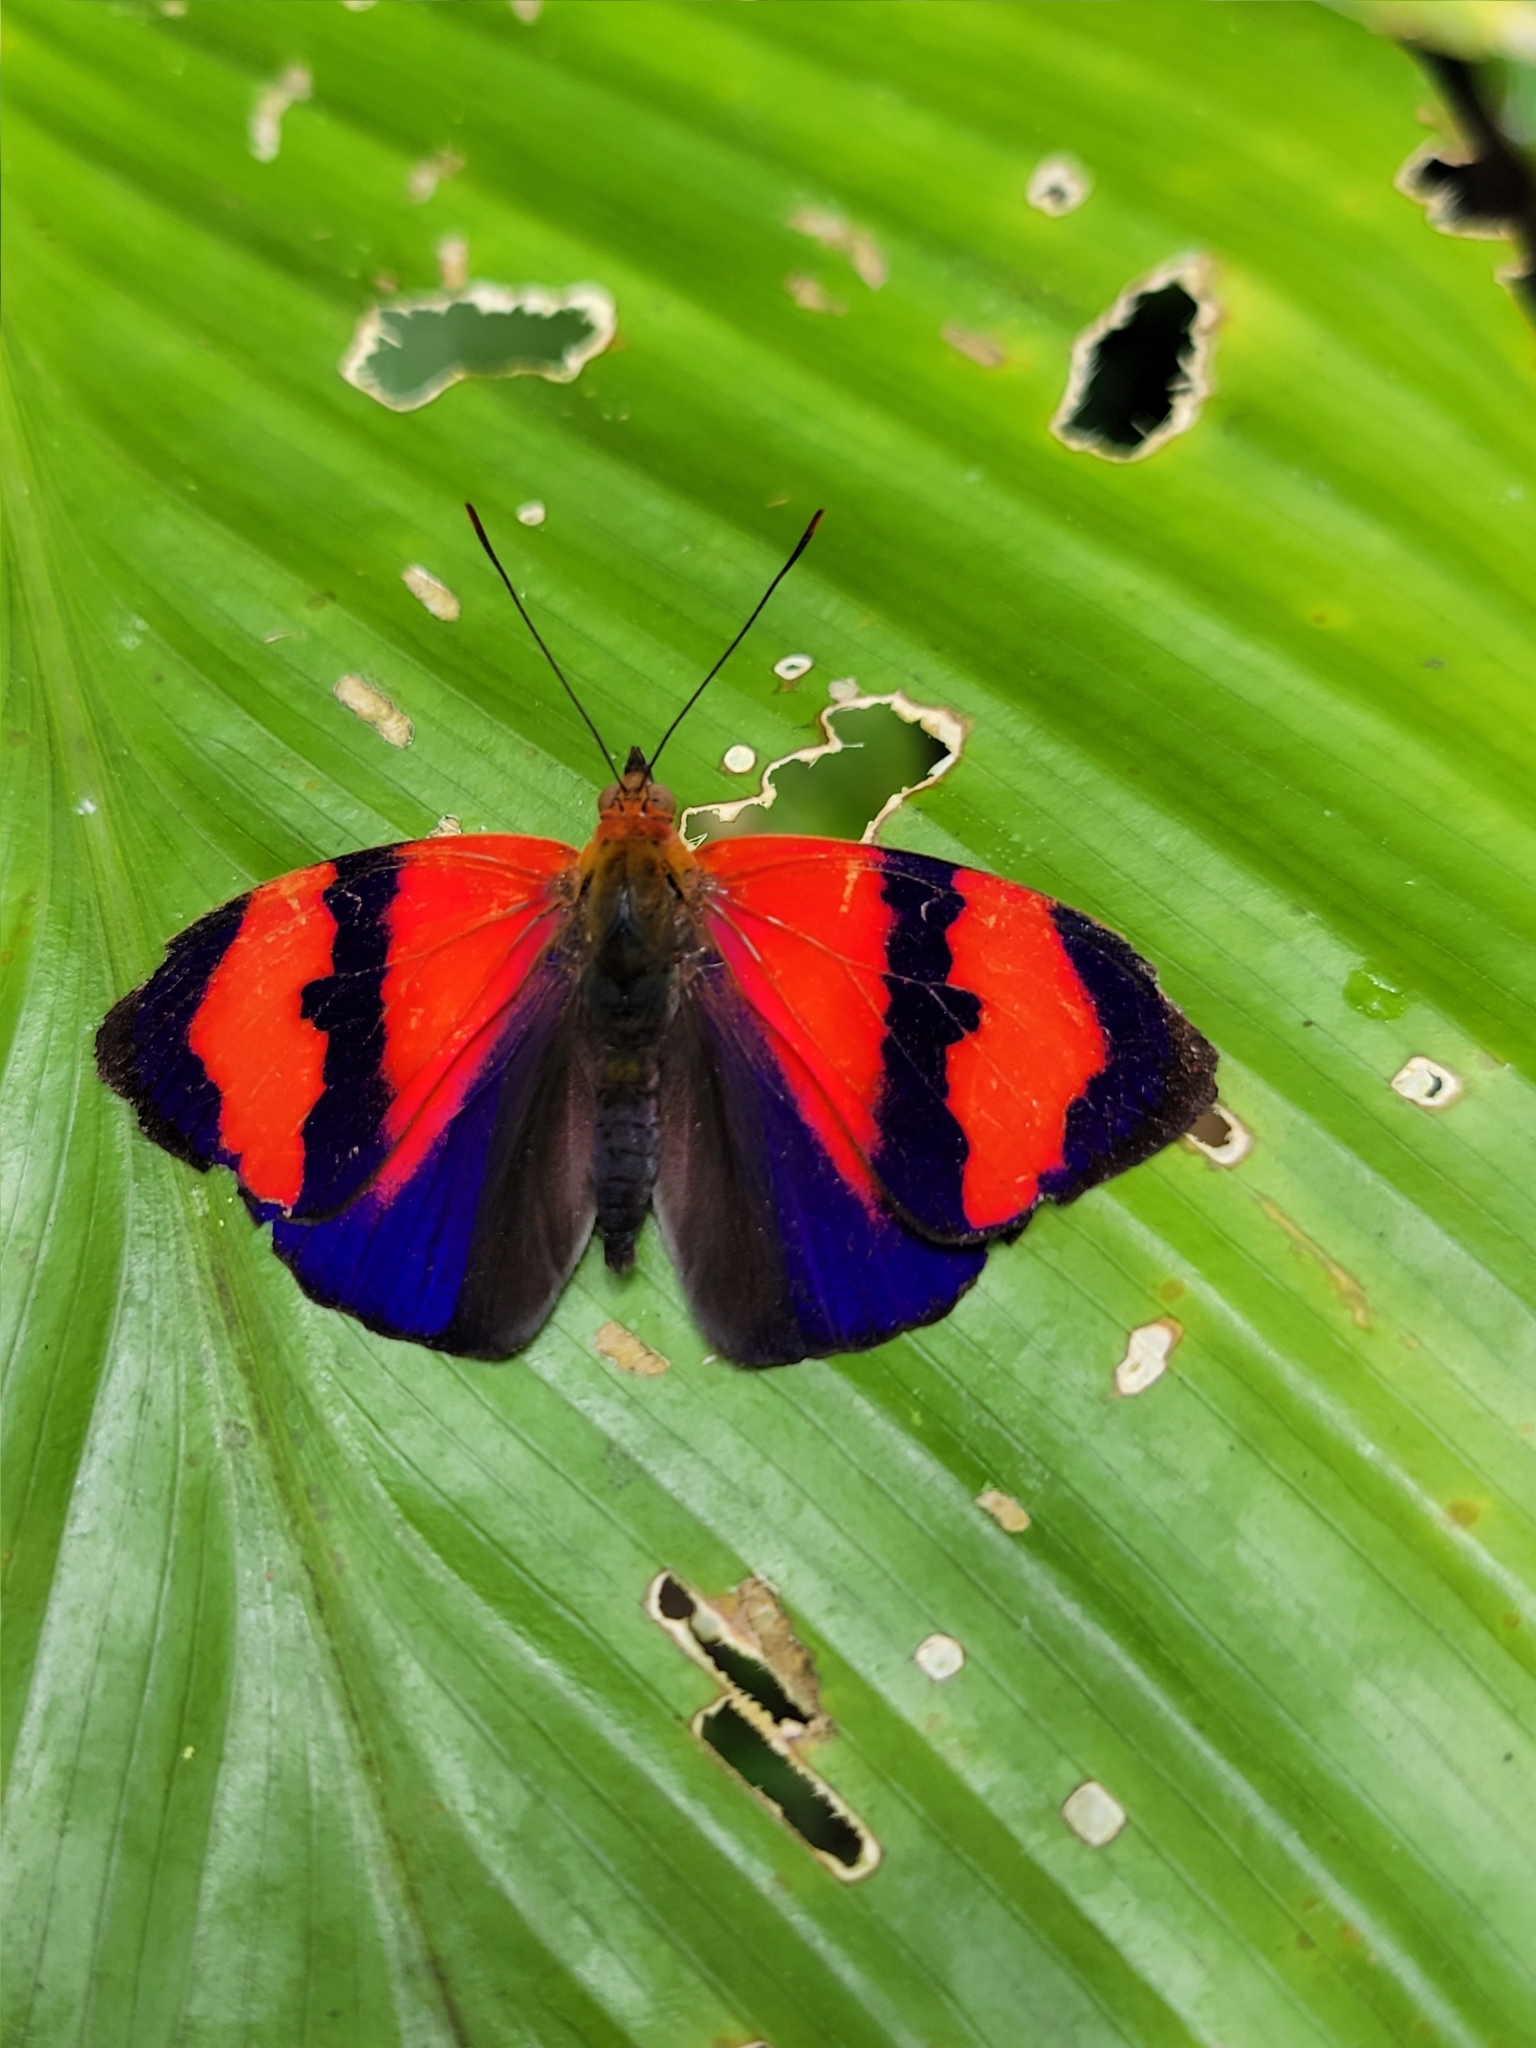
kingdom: Animalia
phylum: Arthropoda
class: Insecta
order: Lepidoptera
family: Nymphalidae
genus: Temenis
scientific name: Temenis pulchra
